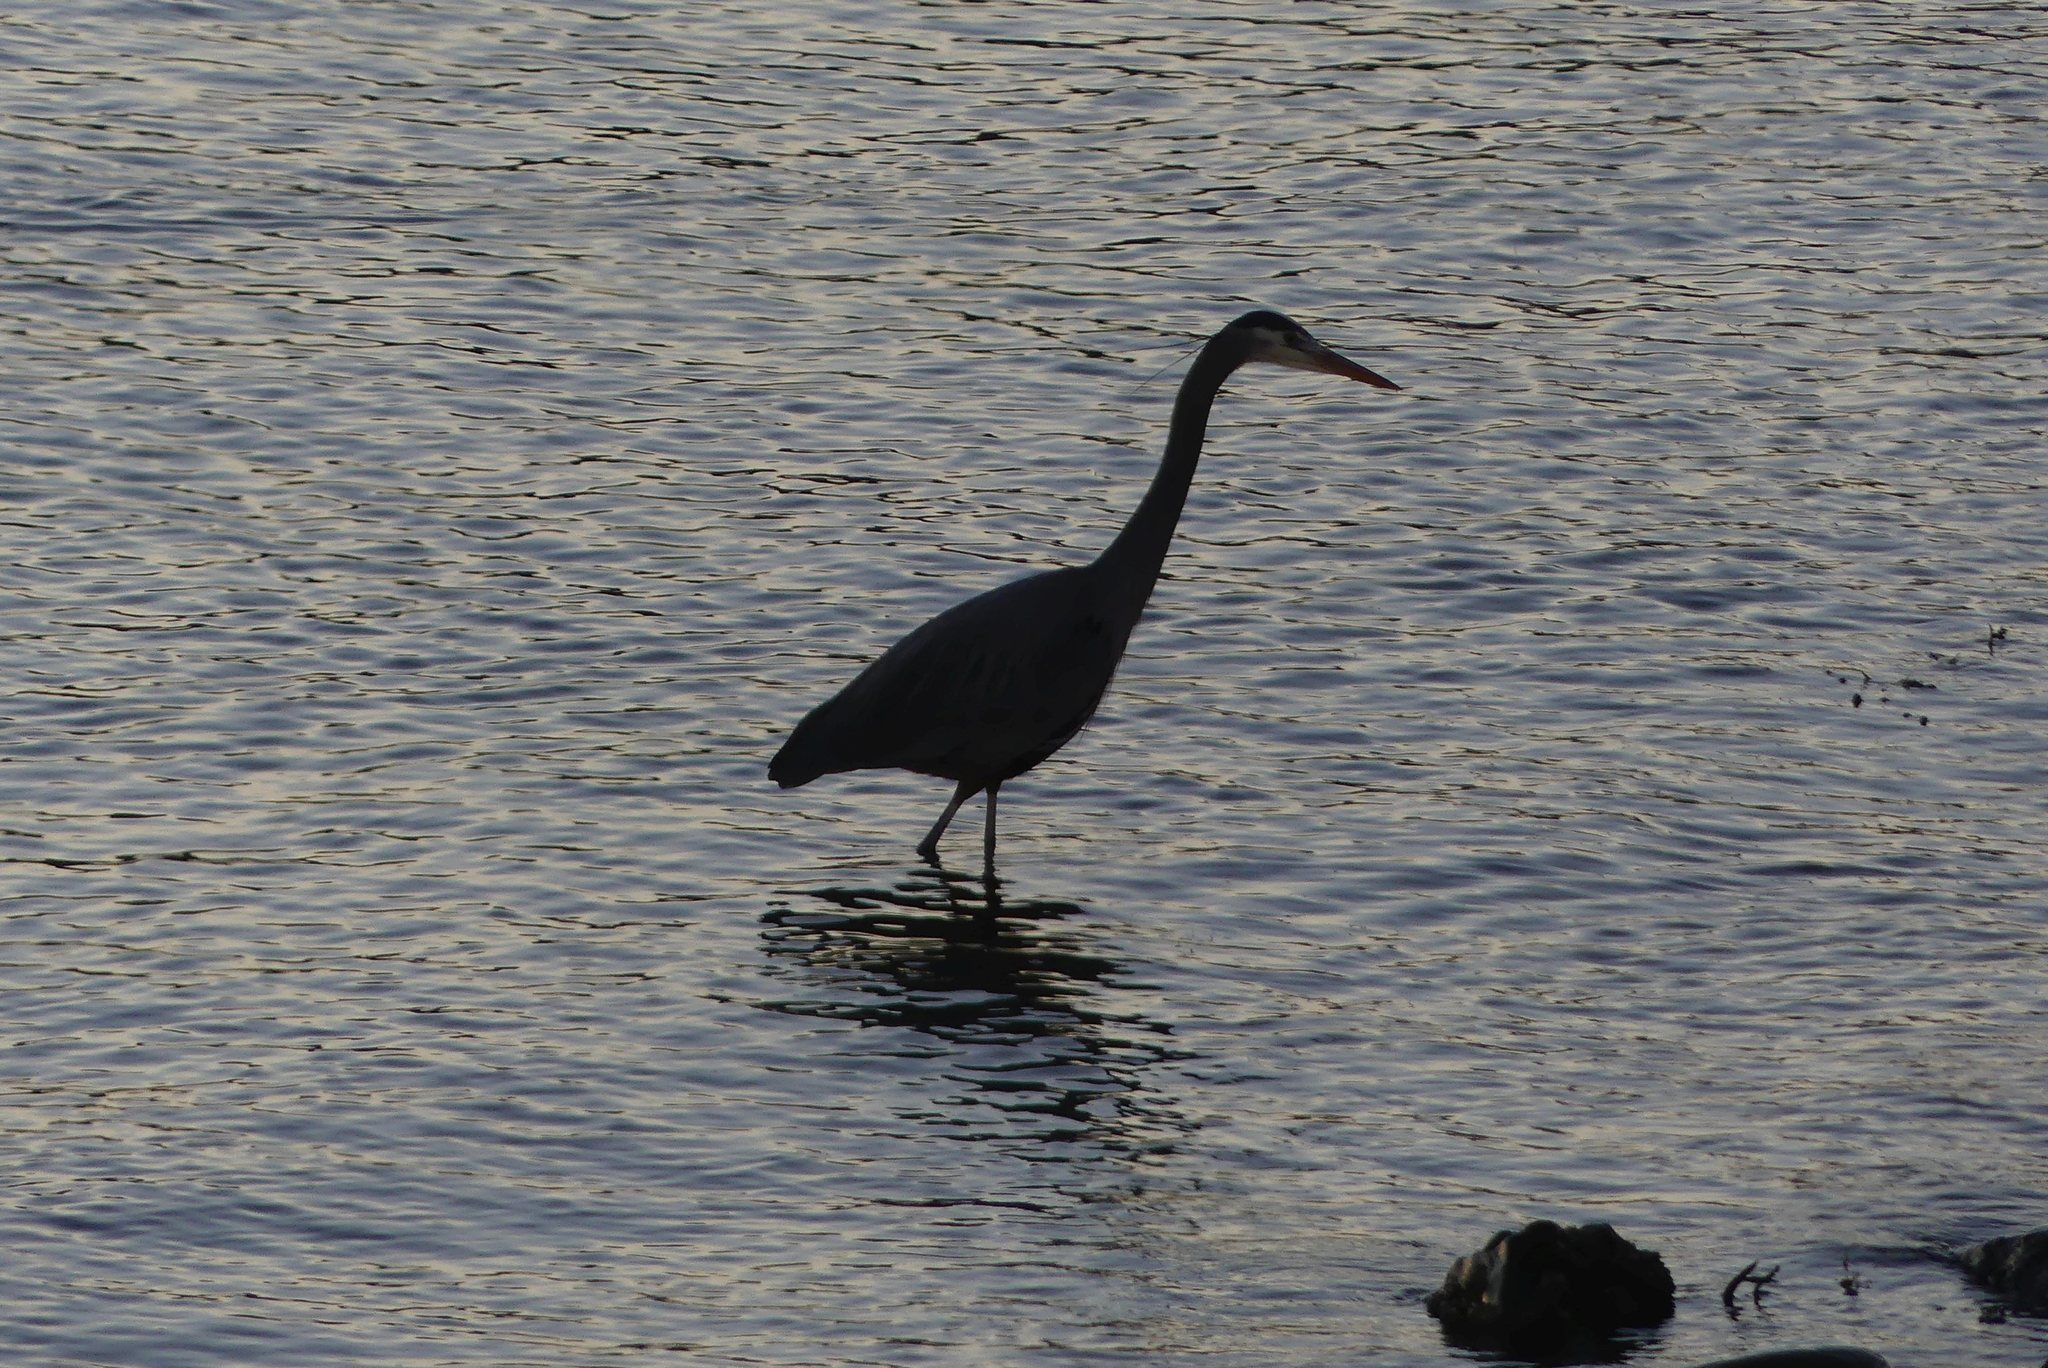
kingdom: Animalia
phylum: Chordata
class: Aves
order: Pelecaniformes
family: Ardeidae
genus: Ardea
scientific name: Ardea herodias
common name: Great blue heron
